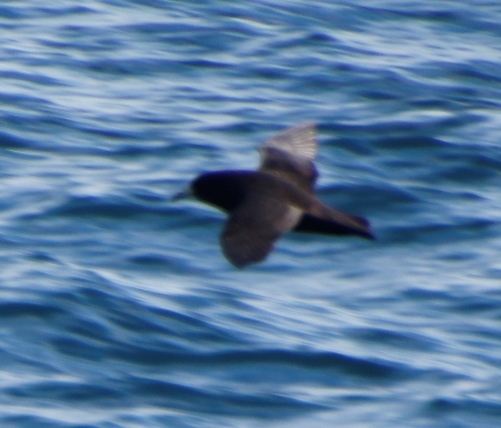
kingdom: Animalia
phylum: Chordata
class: Aves
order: Procellariiformes
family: Procellariidae
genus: Procellaria
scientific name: Procellaria aequinoctialis
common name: White-chinned petrel
